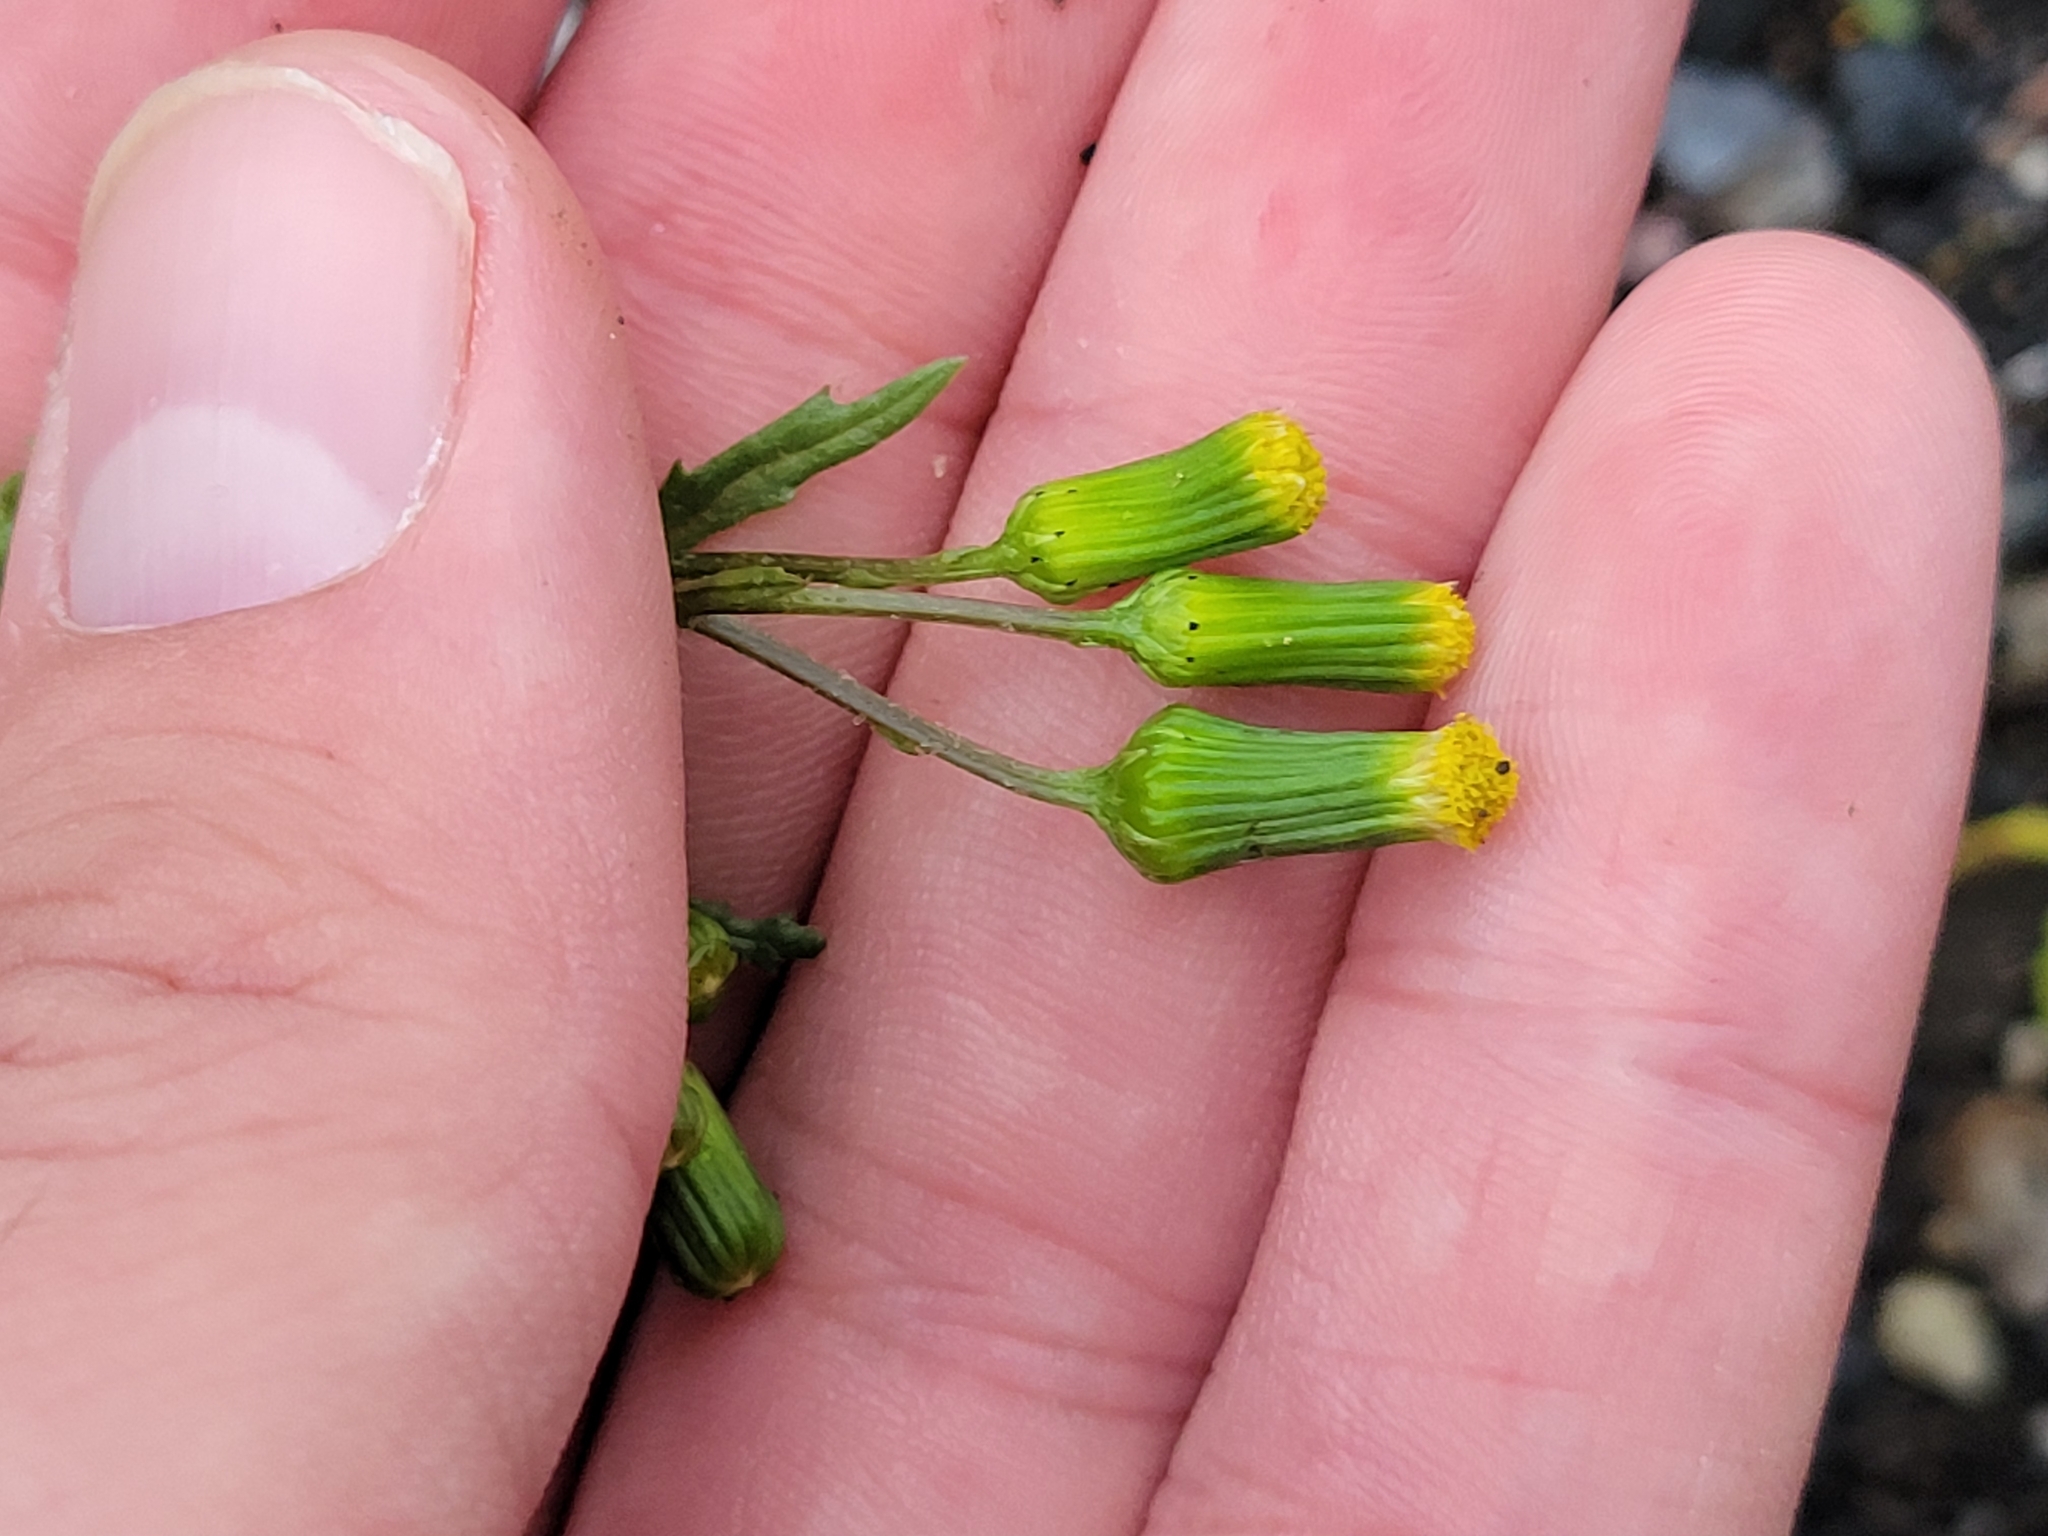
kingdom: Plantae
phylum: Tracheophyta
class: Magnoliopsida
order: Asterales
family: Asteraceae
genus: Senecio
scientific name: Senecio vulgaris
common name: Old-man-in-the-spring
